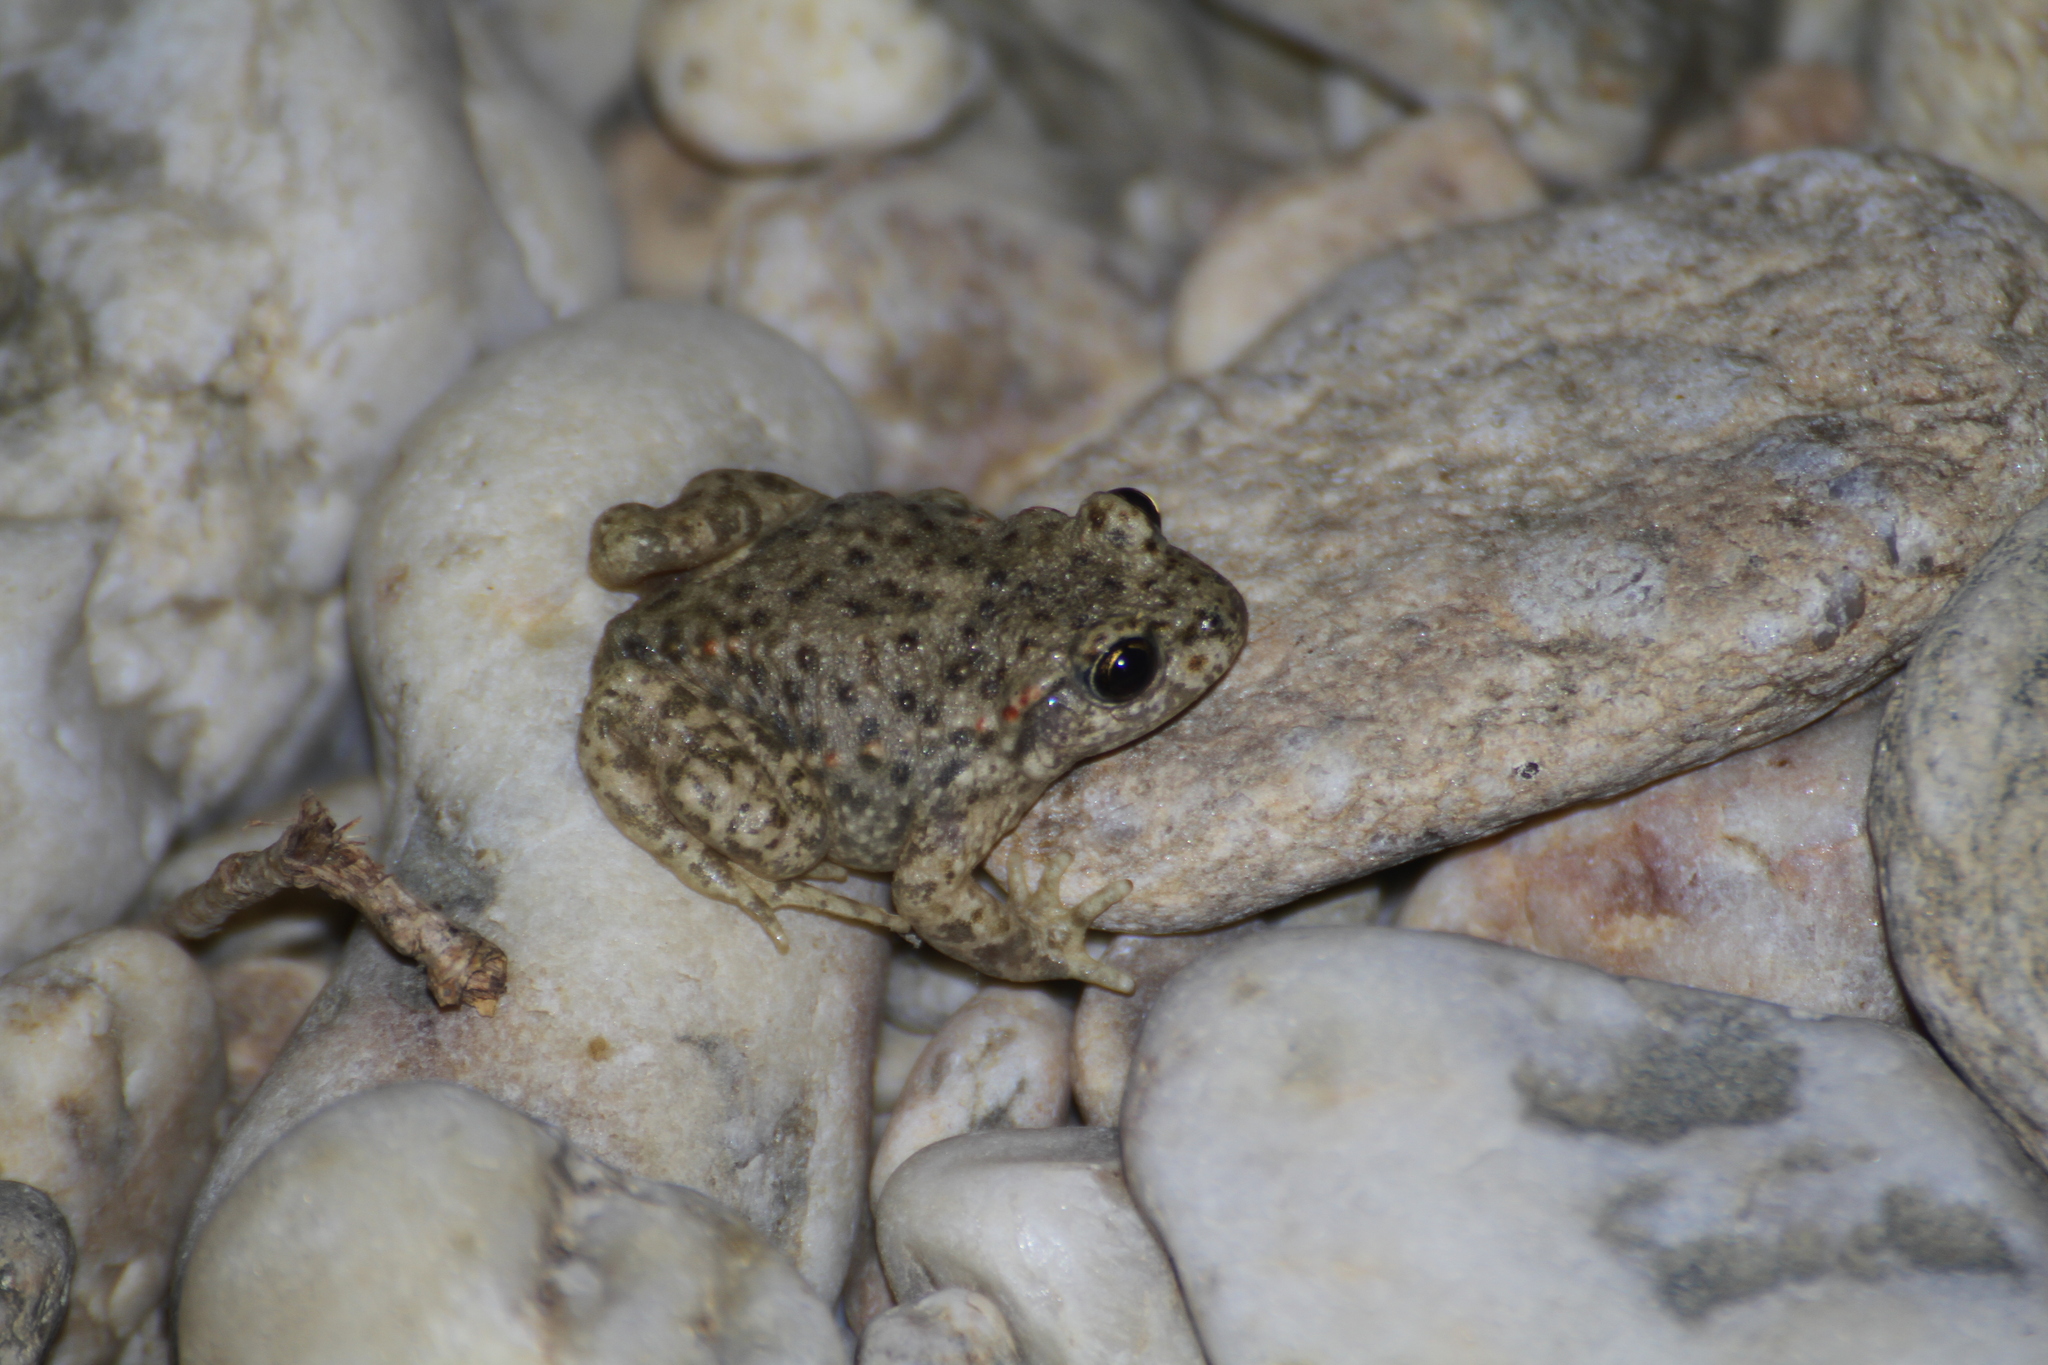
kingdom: Animalia
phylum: Chordata
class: Amphibia
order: Anura
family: Alytidae
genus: Alytes
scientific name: Alytes obstetricans
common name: Midwife toad
